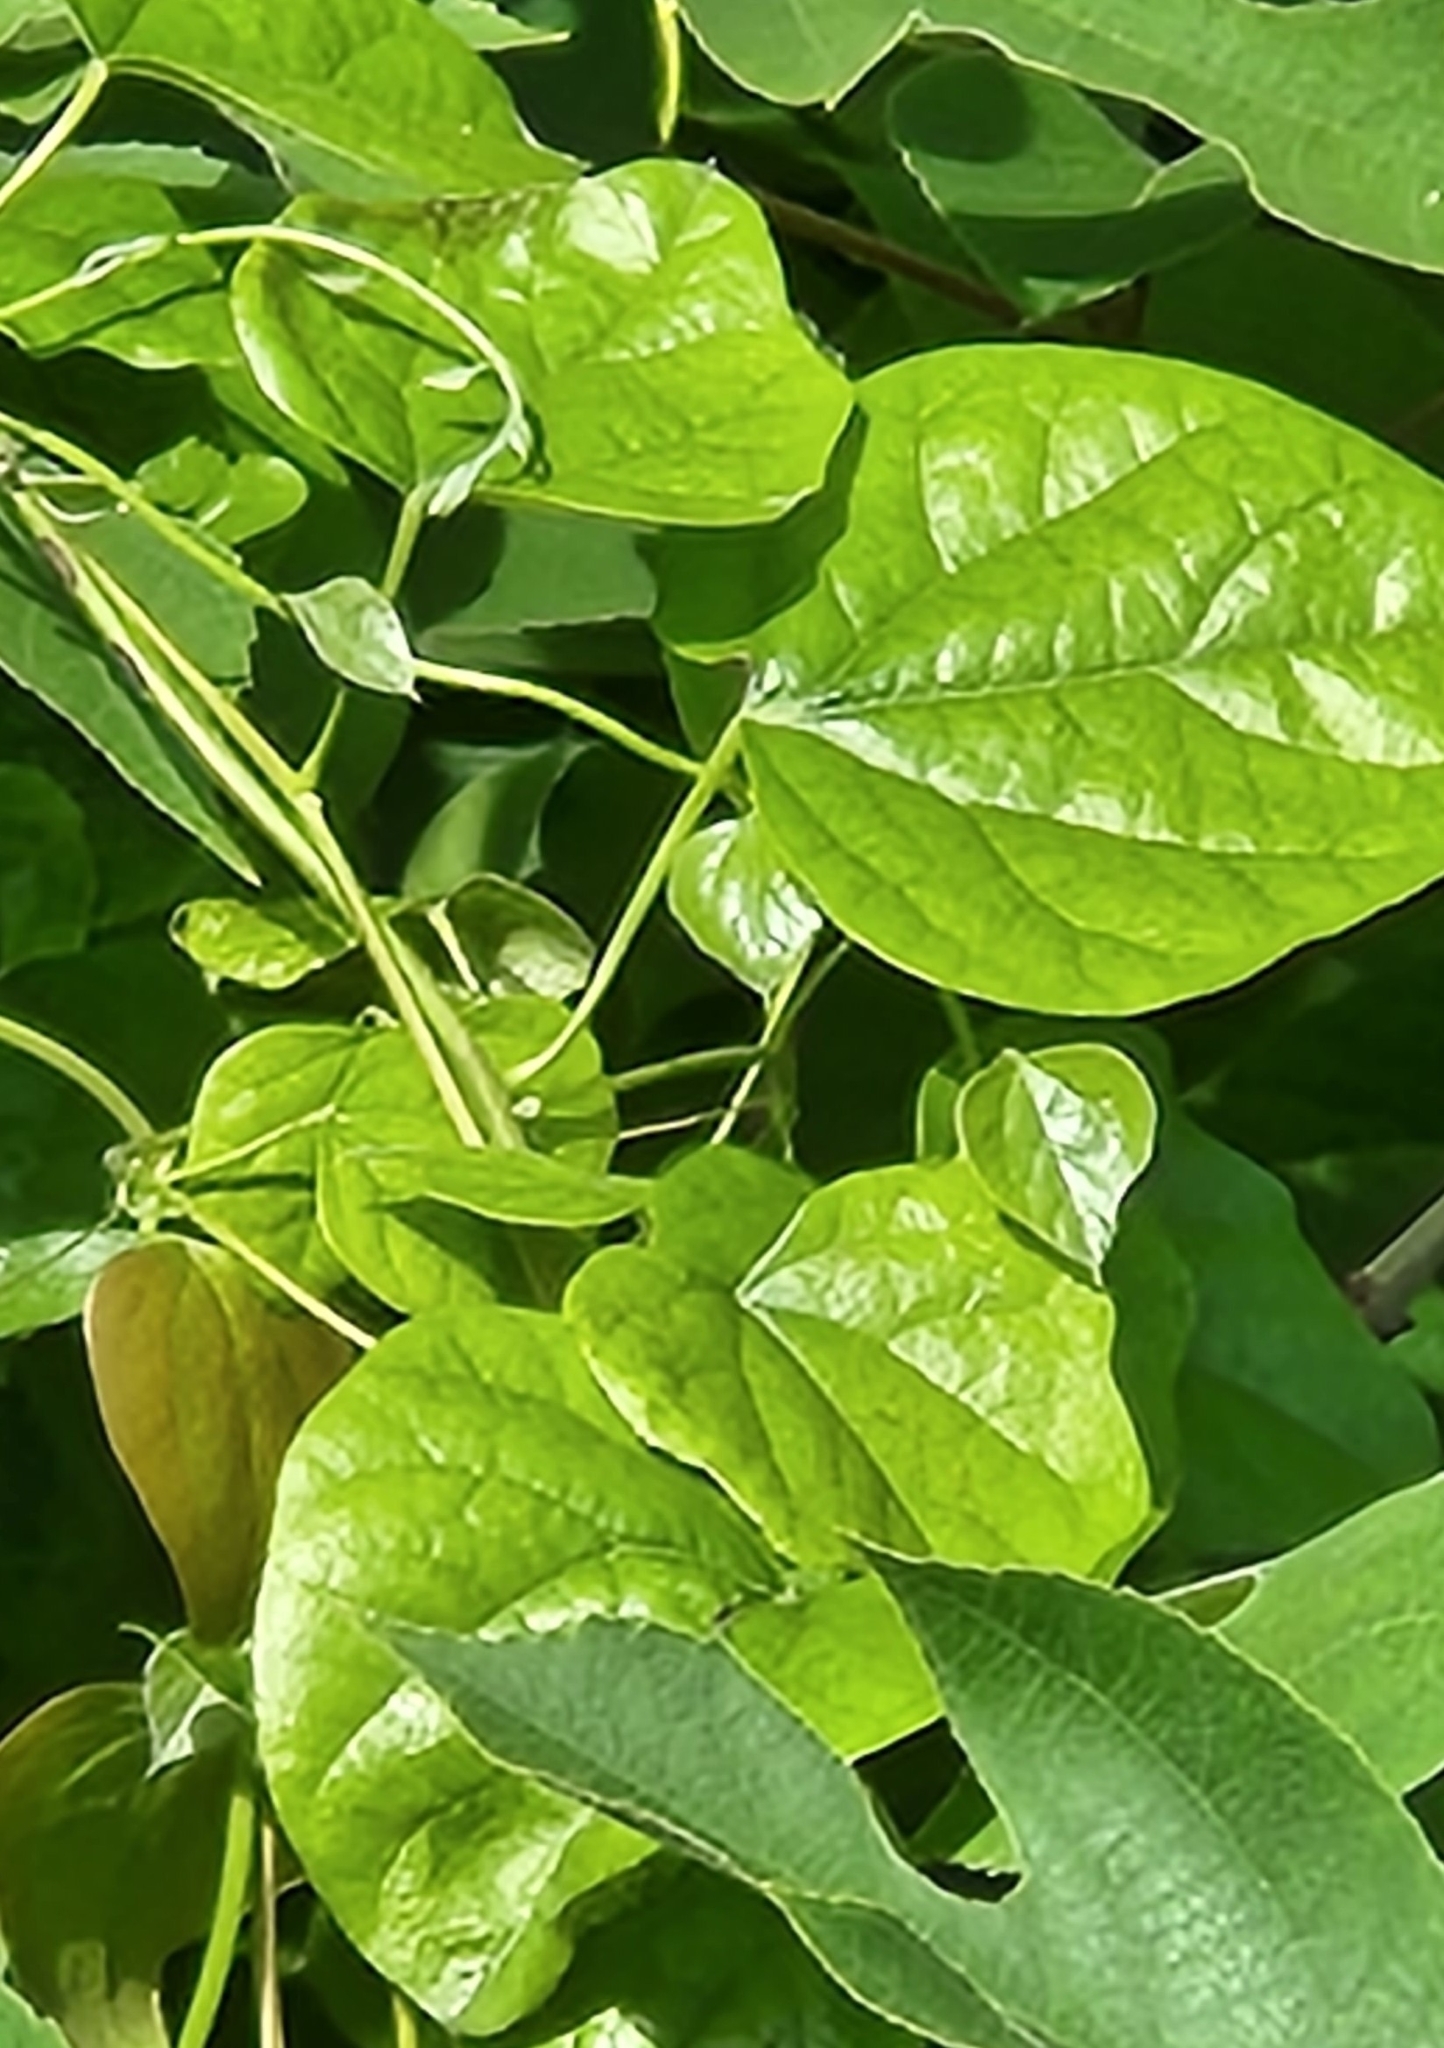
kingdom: Plantae
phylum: Tracheophyta
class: Magnoliopsida
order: Ranunculales
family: Menispermaceae
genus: Cocculus
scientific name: Cocculus carolinus
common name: Carolina moonseed
